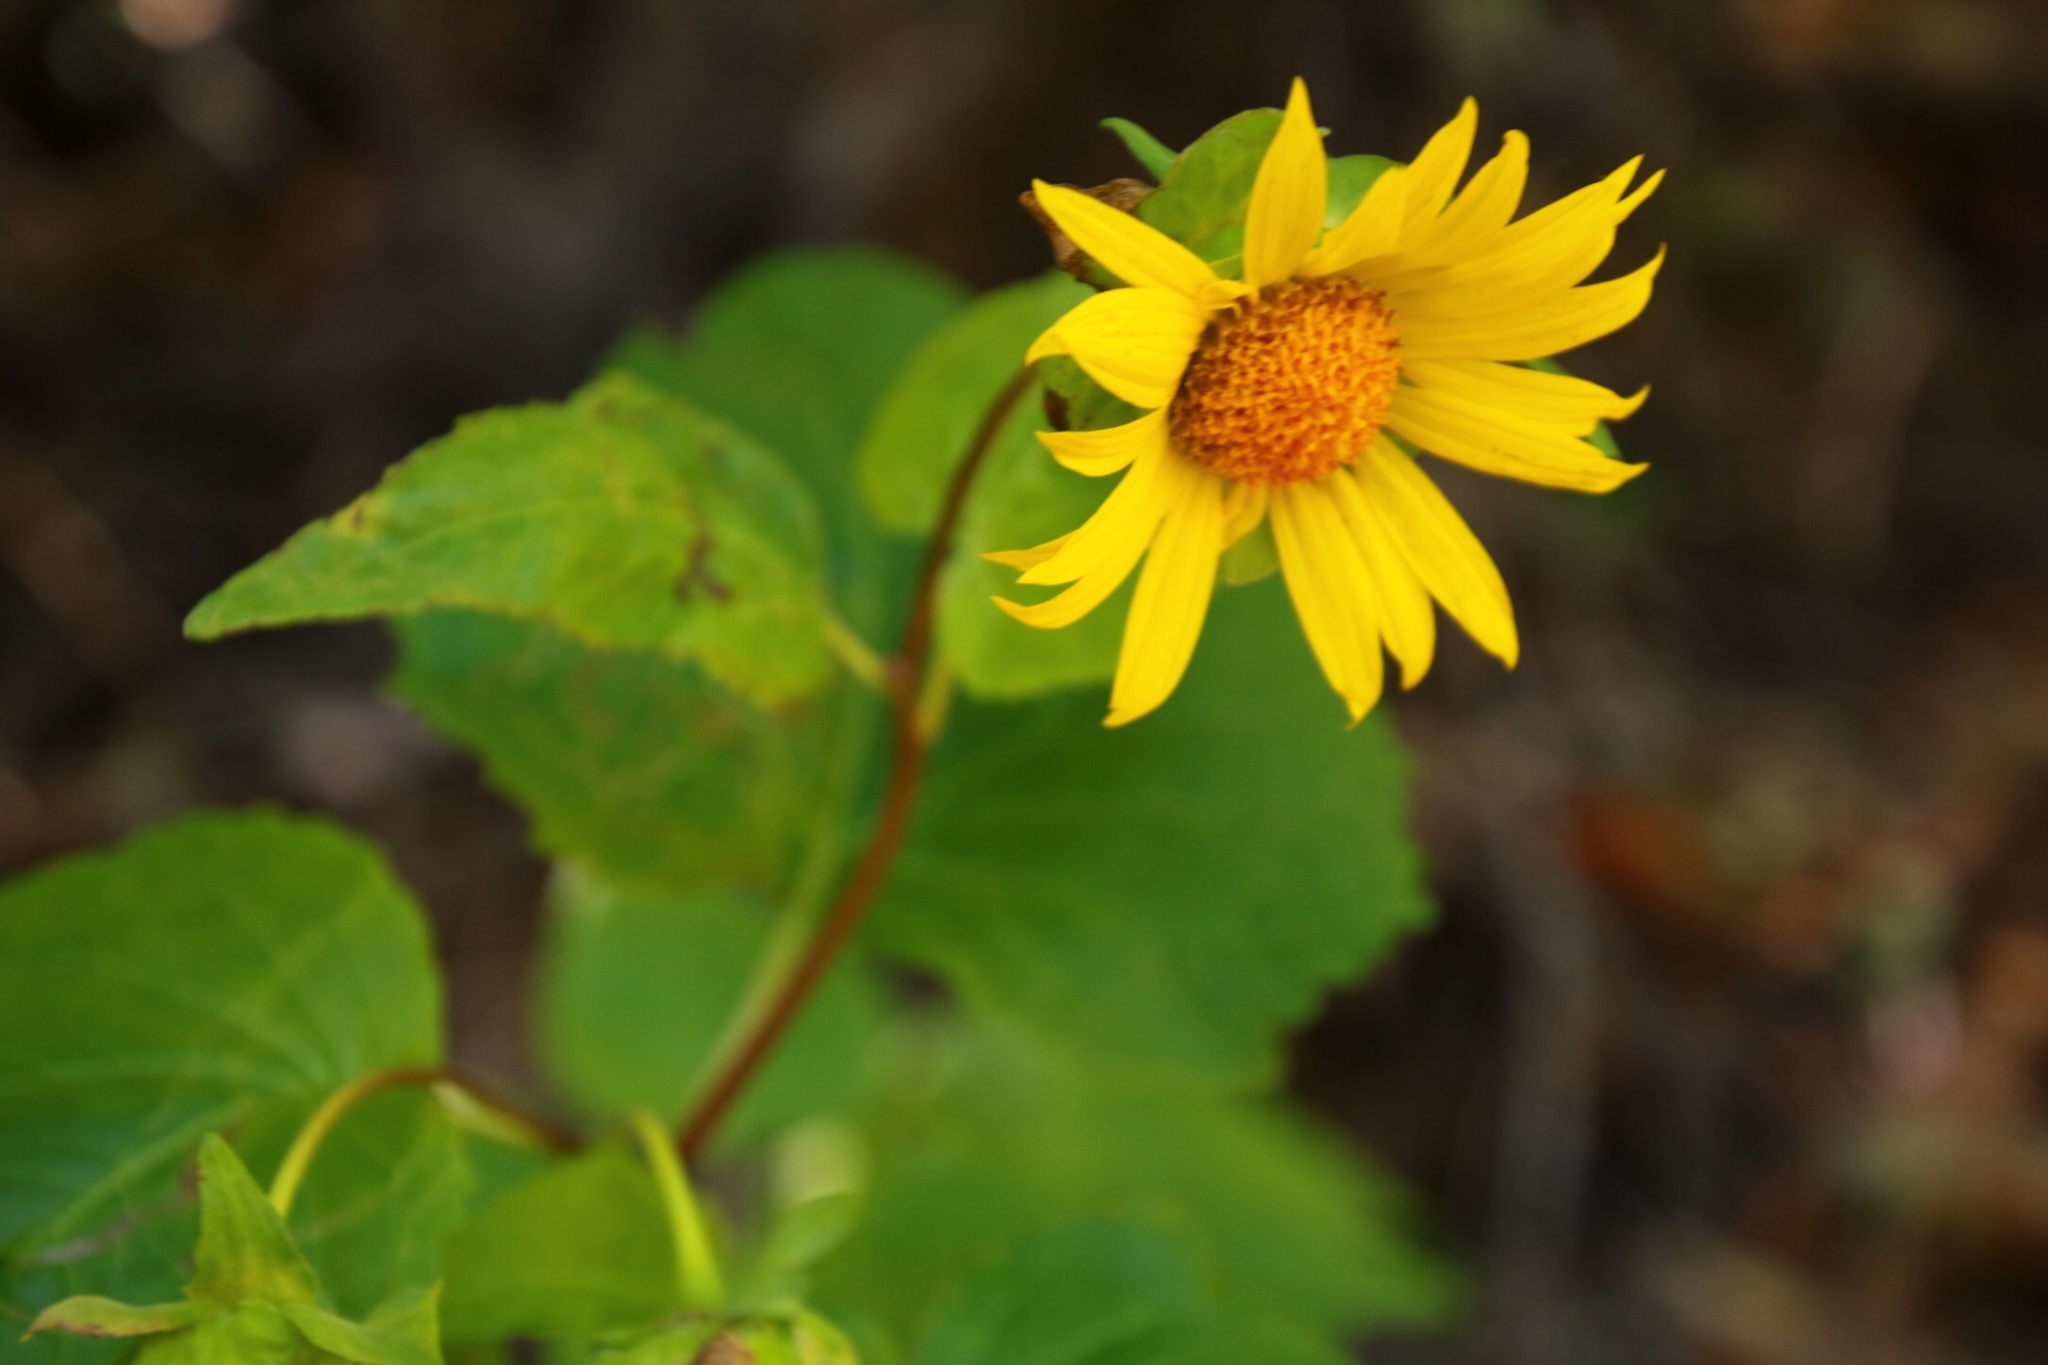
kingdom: Plantae
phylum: Tracheophyta
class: Magnoliopsida
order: Asterales
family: Asteraceae
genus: Venegasia
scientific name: Venegasia carpesioides
